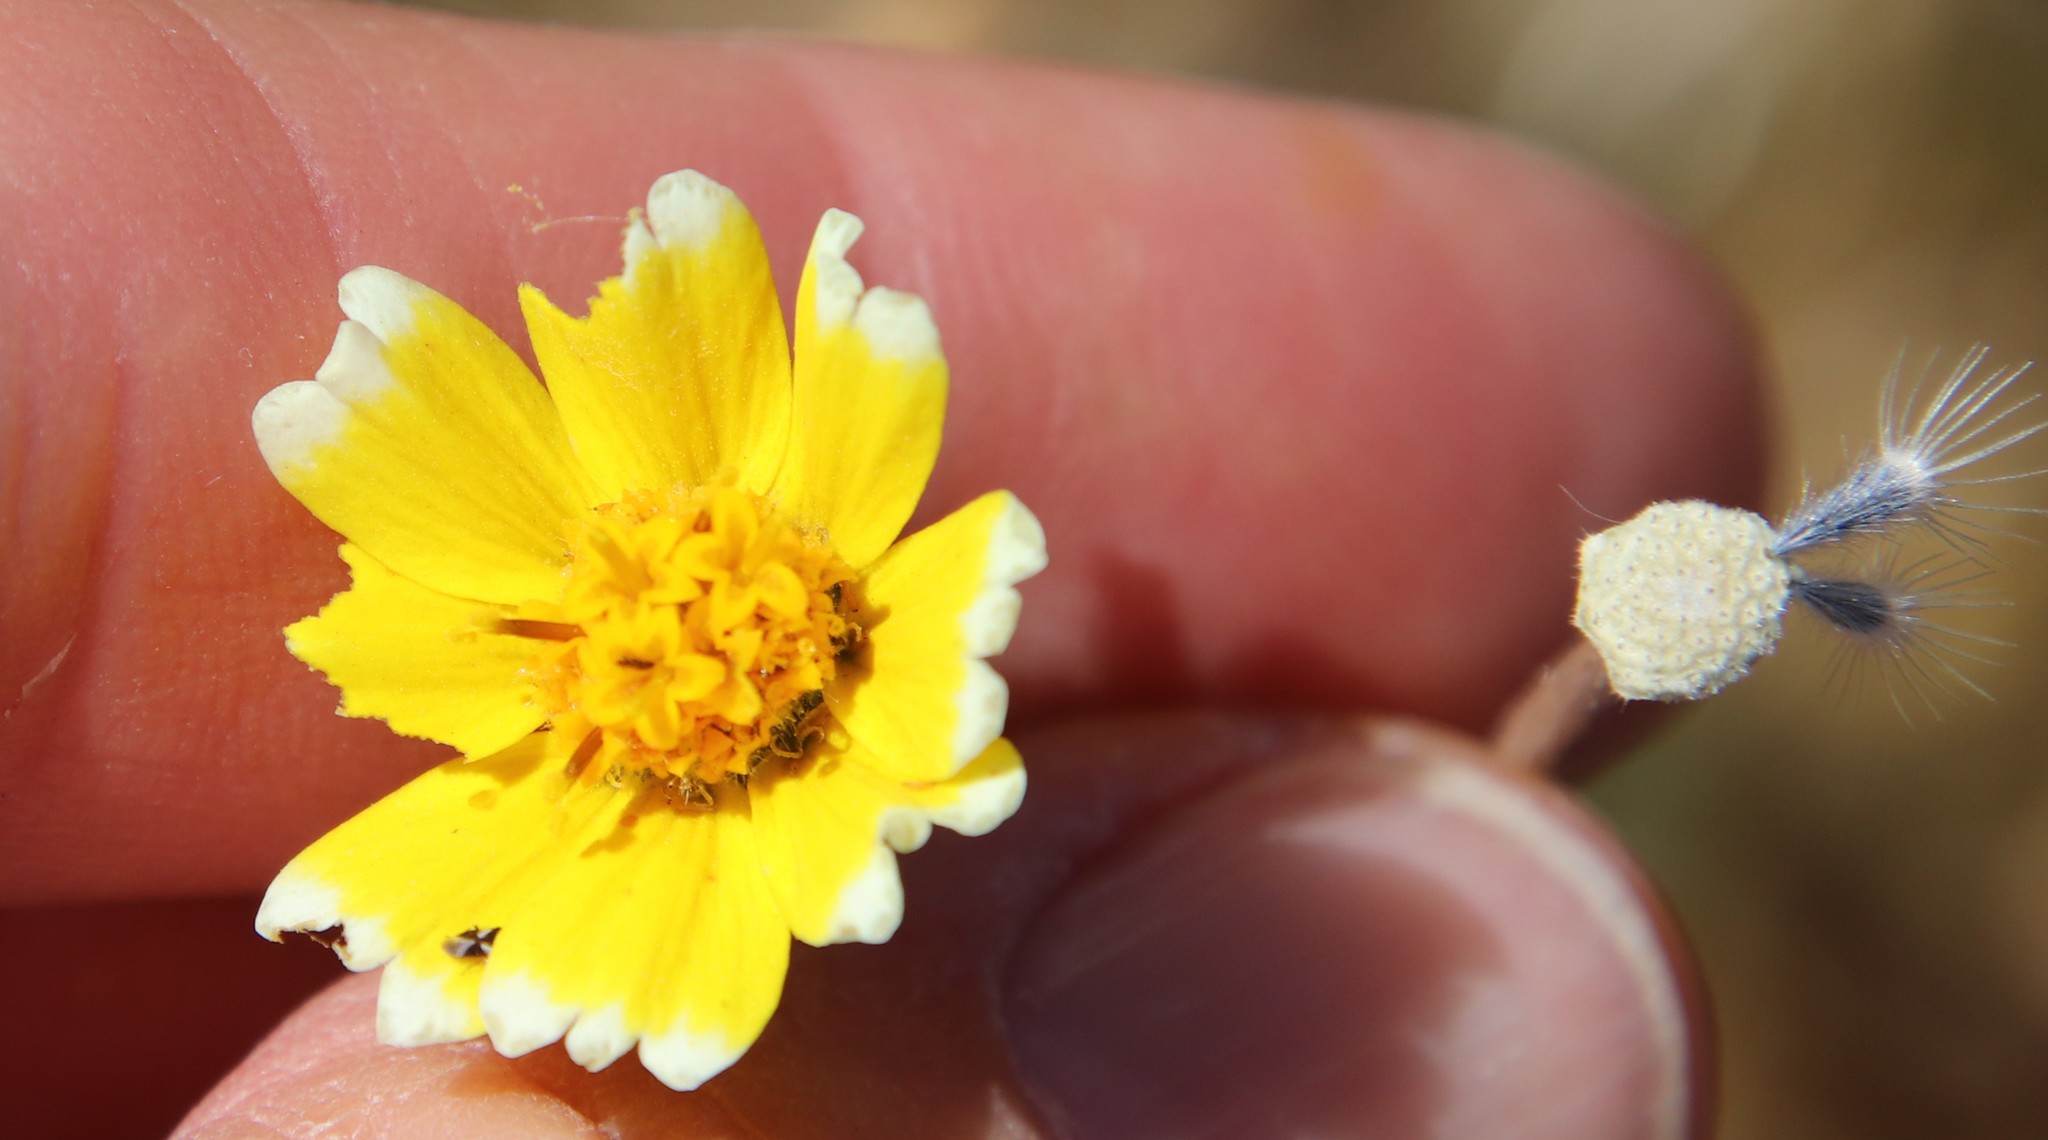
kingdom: Plantae
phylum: Tracheophyta
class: Magnoliopsida
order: Asterales
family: Asteraceae
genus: Layia
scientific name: Layia platyglossa
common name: Tidy-tips
